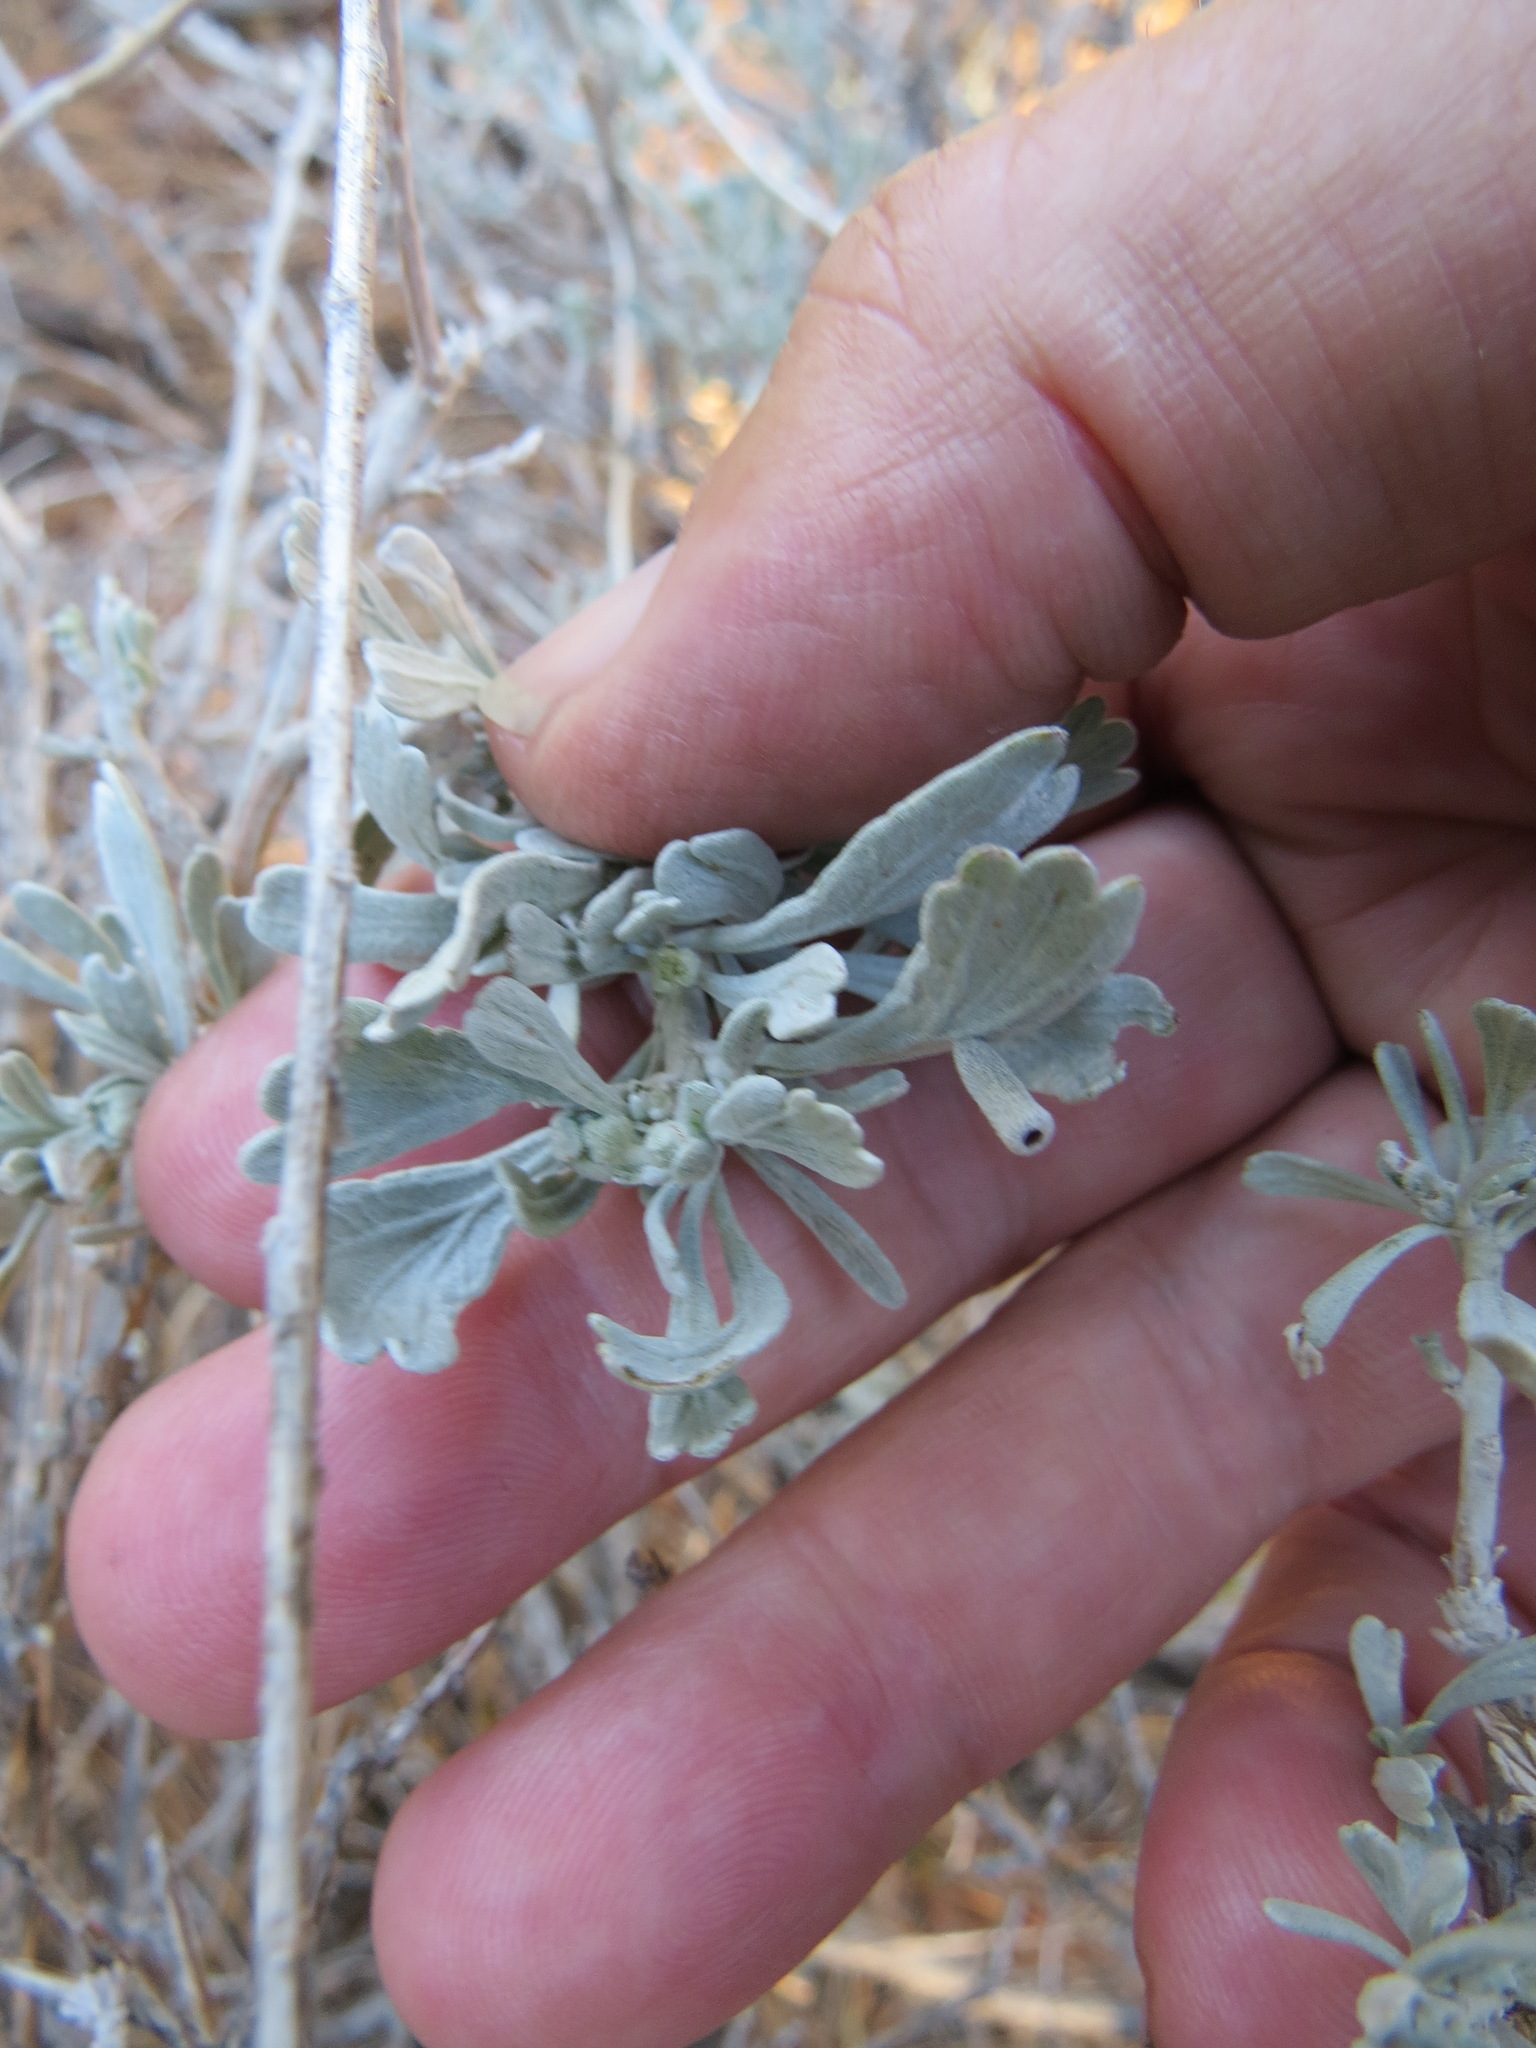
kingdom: Animalia
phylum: Arthropoda
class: Insecta
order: Diptera
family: Cecidomyiidae
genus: Rhopalomyia
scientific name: Rhopalomyia tubulus
